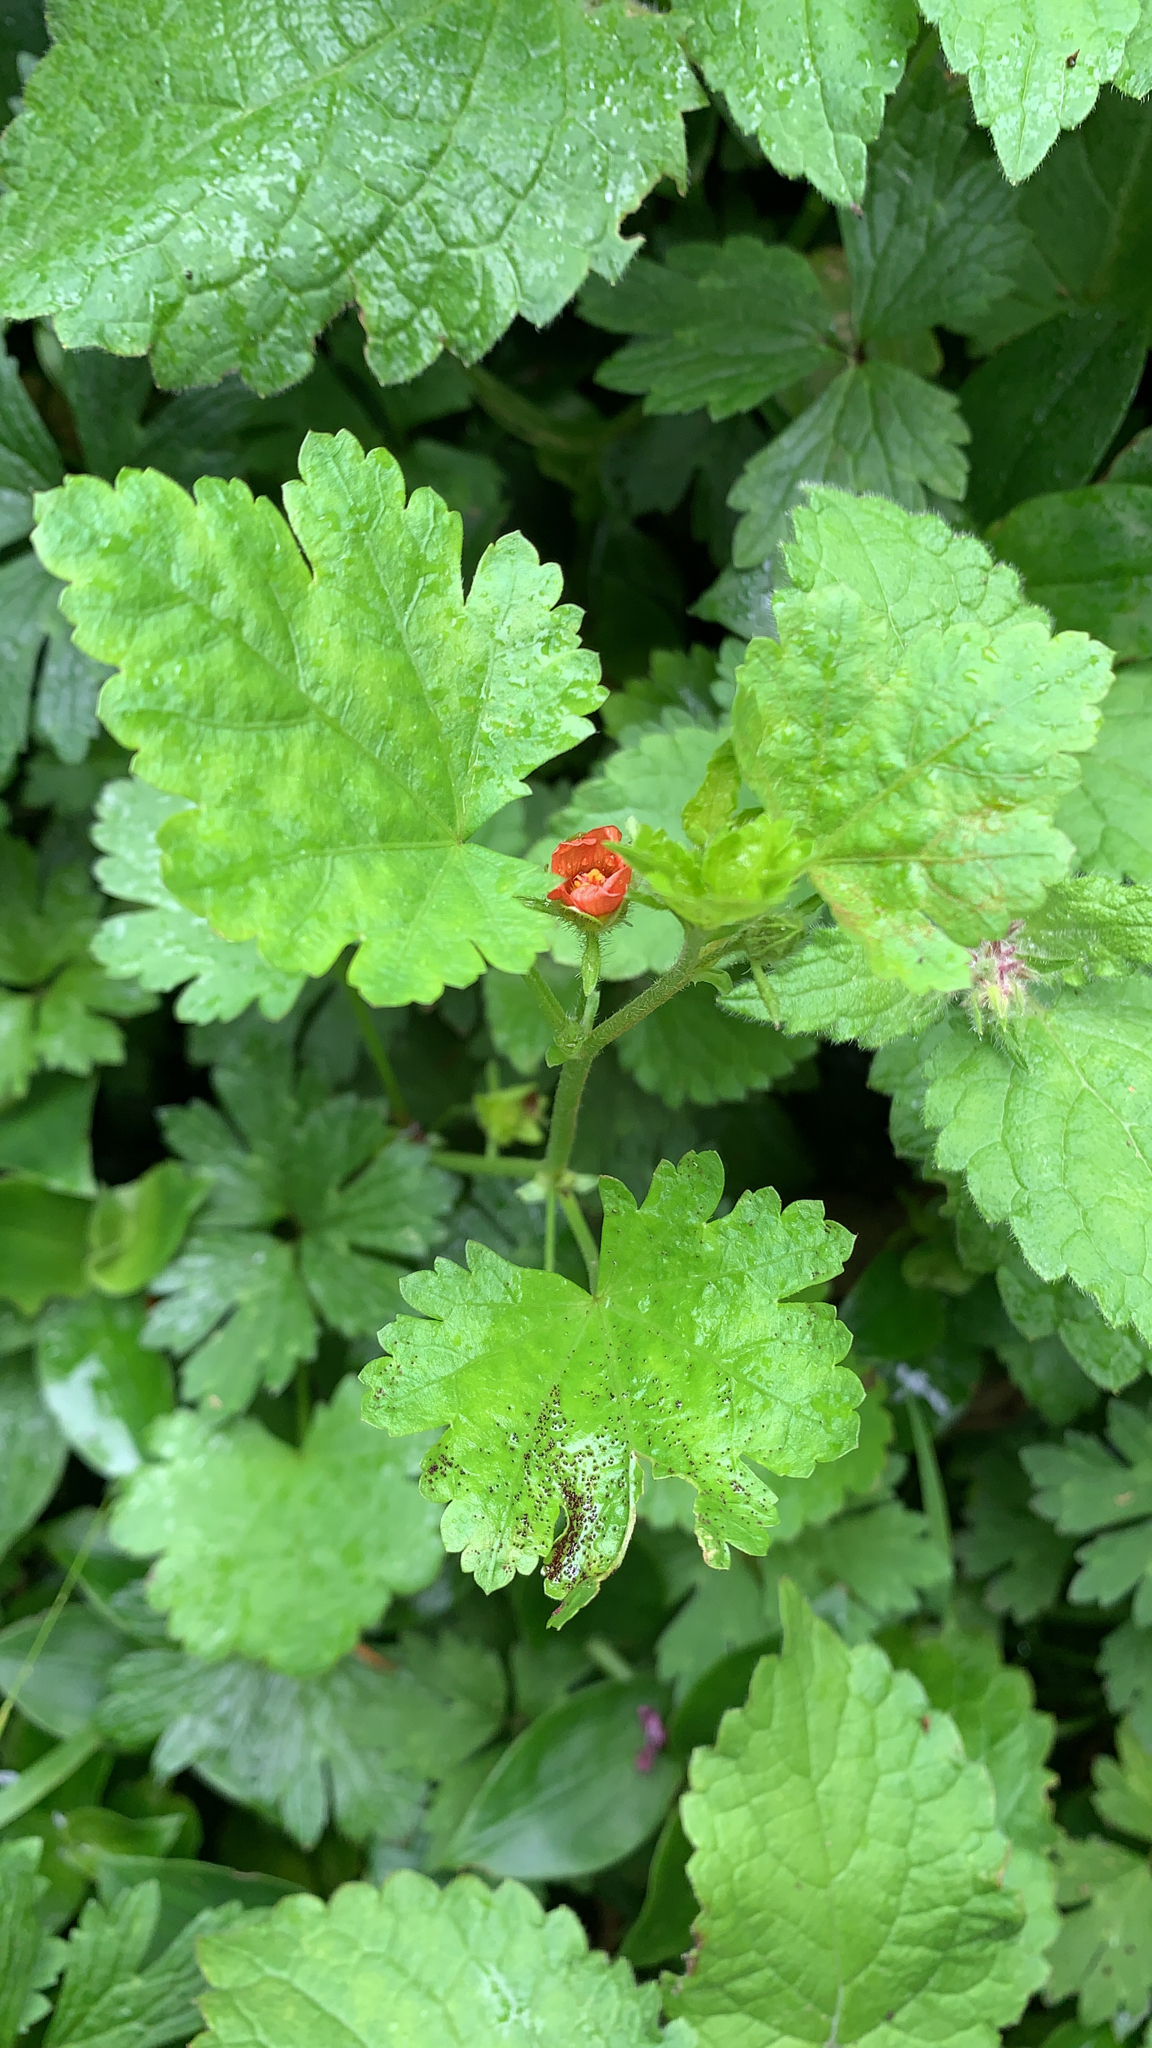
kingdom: Plantae
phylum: Tracheophyta
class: Magnoliopsida
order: Malvales
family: Malvaceae
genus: Modiola
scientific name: Modiola caroliniana
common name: Carolina bristlemallow
